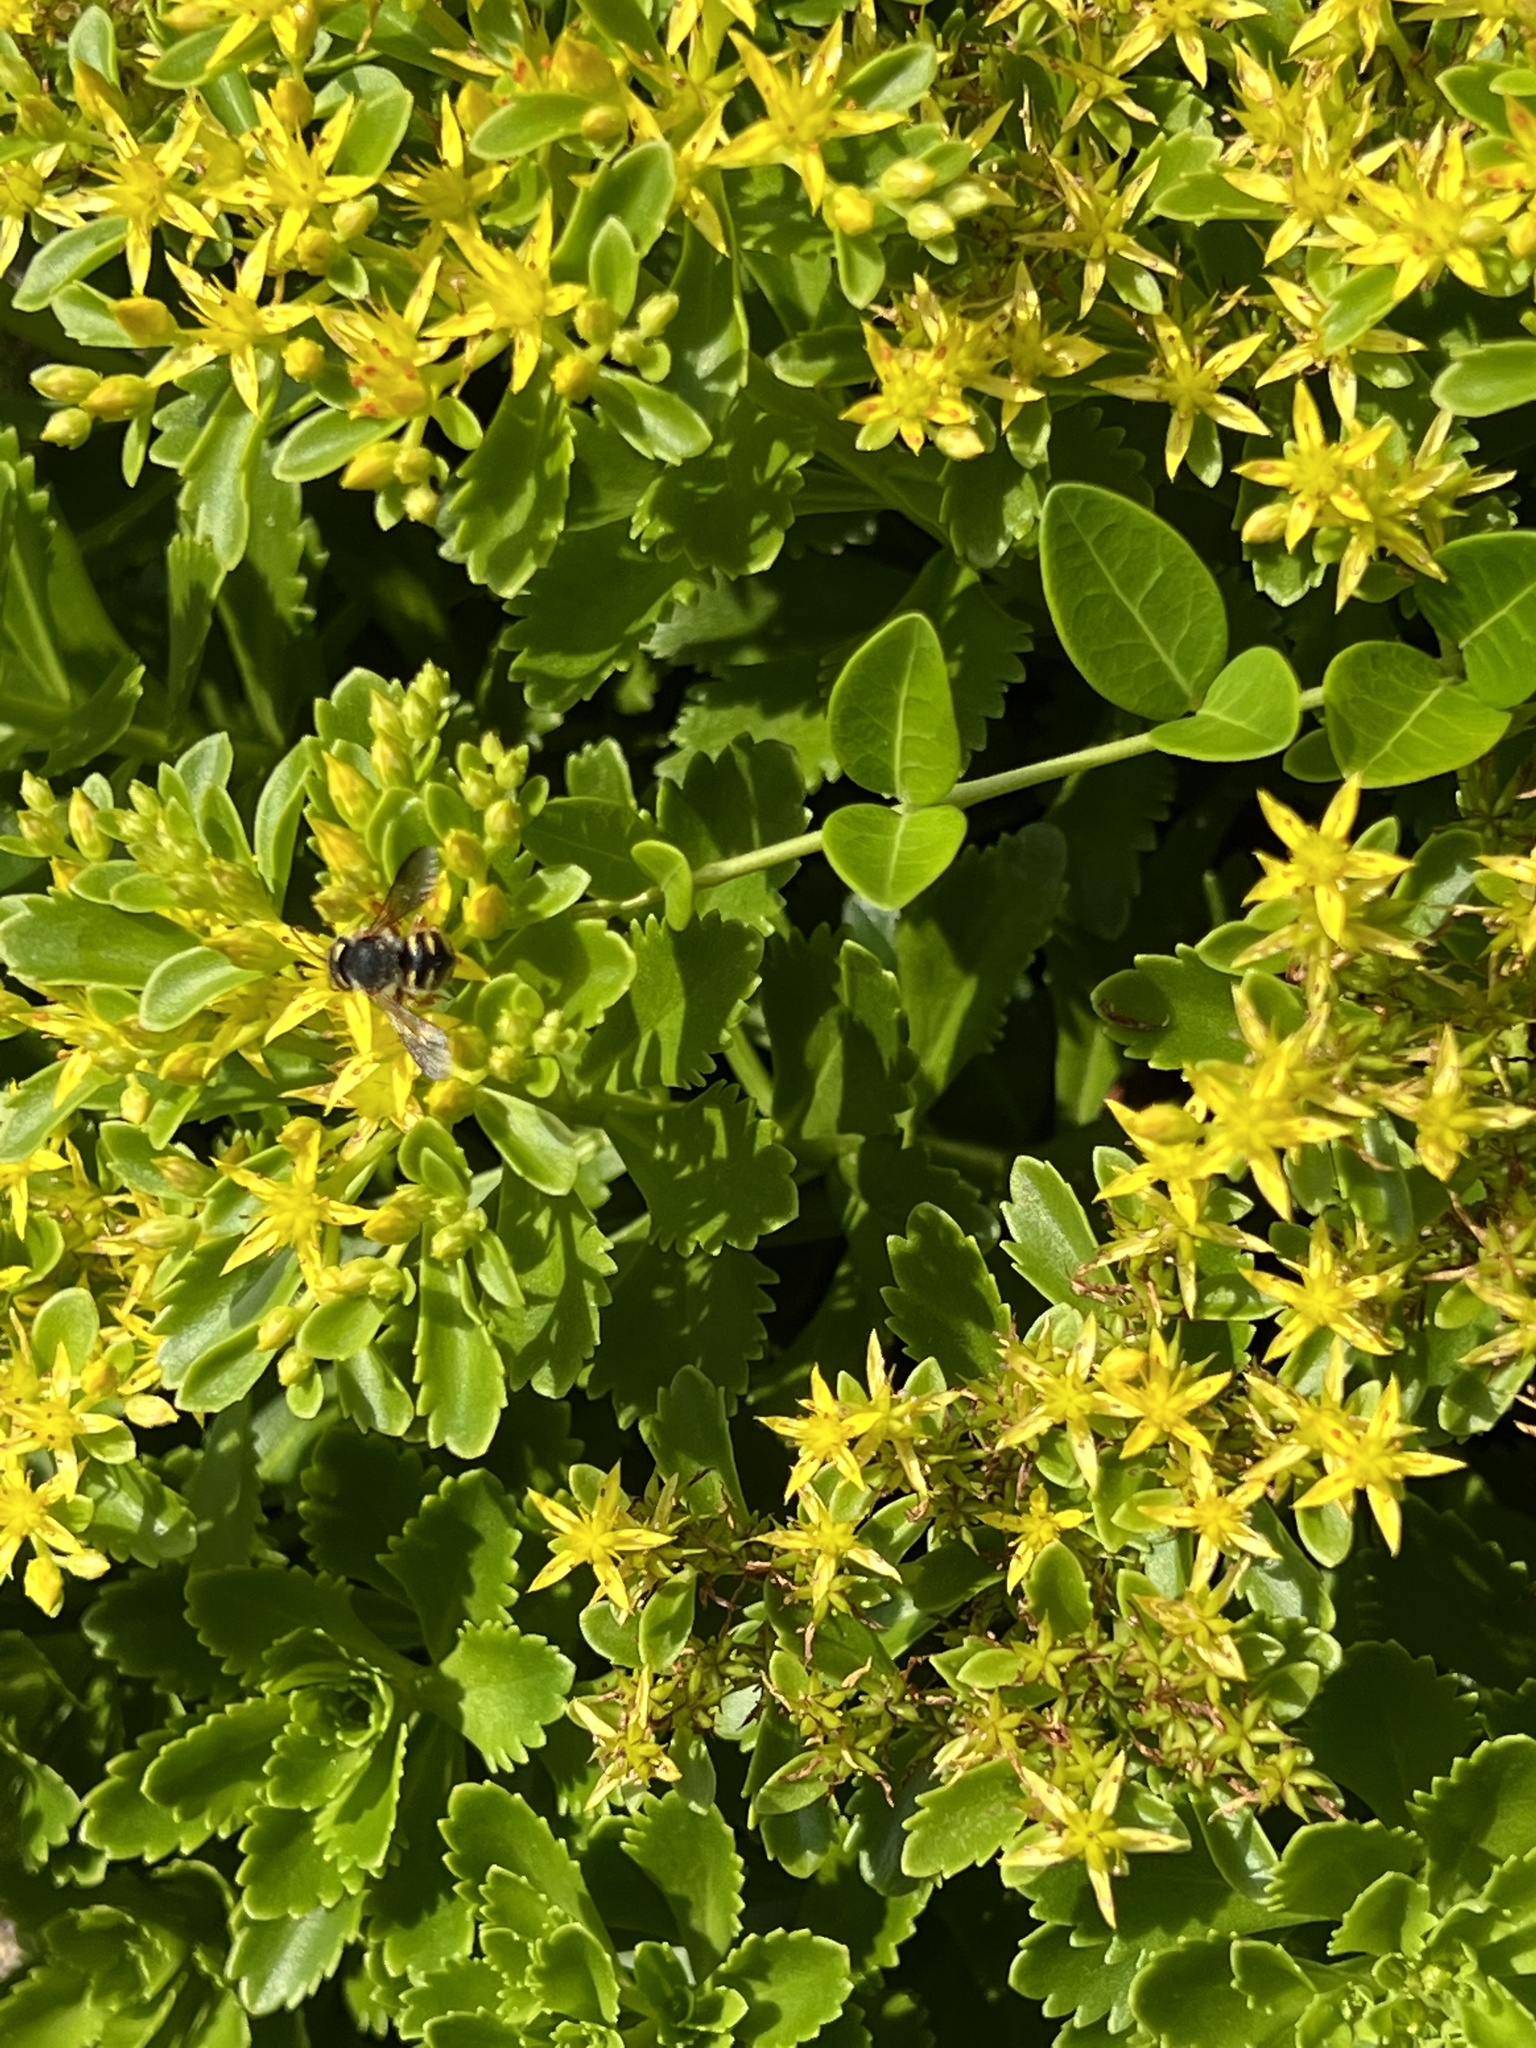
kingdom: Animalia
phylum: Arthropoda
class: Insecta
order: Hymenoptera
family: Megachilidae
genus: Anthidium
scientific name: Anthidium oblongatum
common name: Oblong wool carder bee
